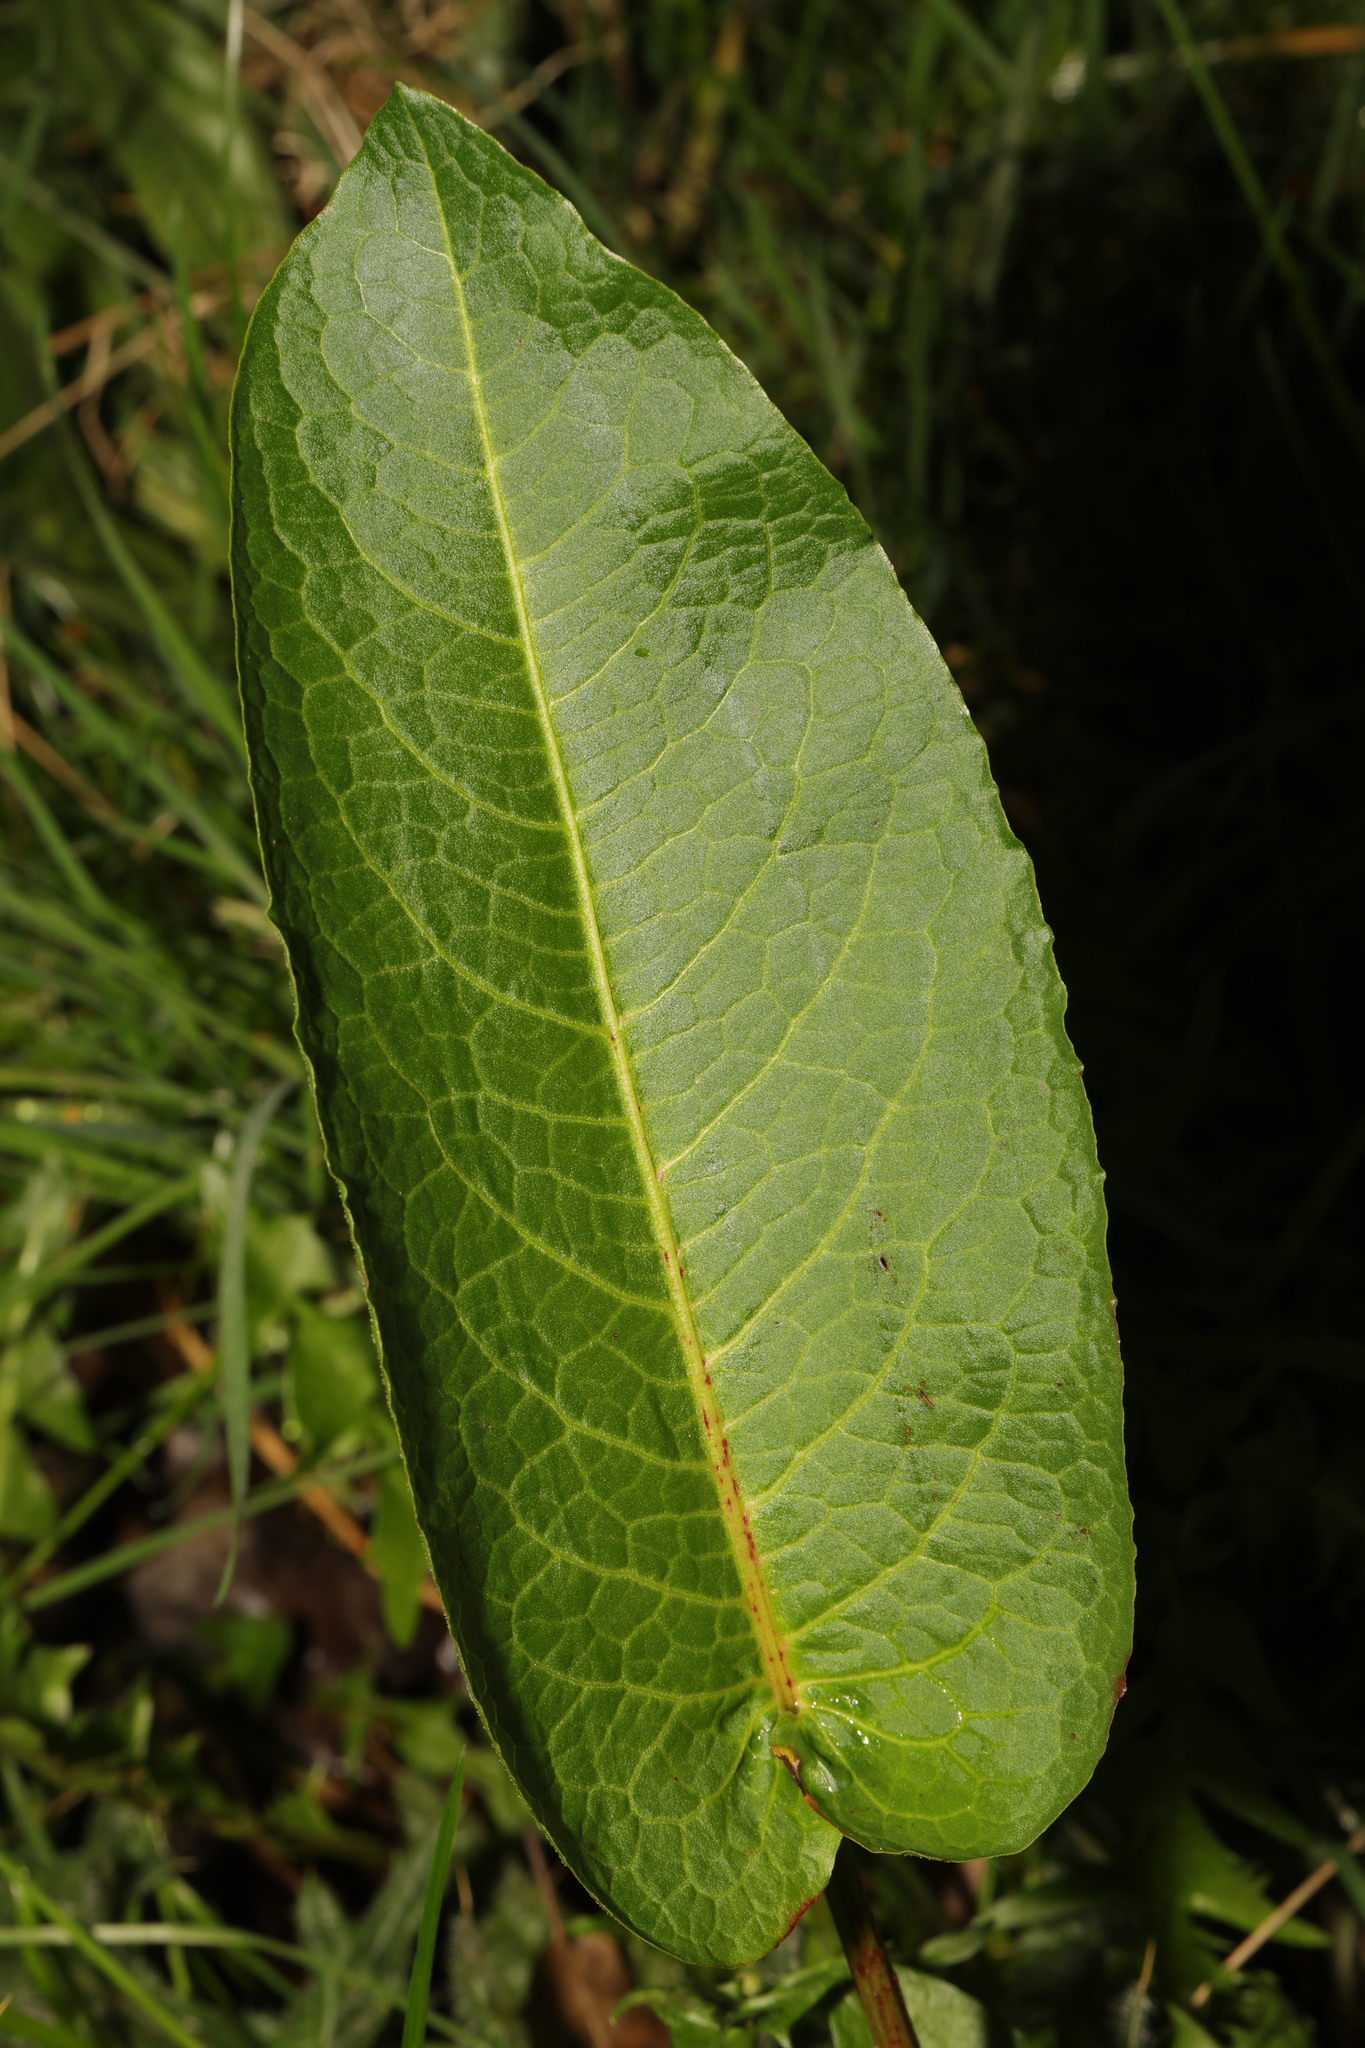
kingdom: Plantae
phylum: Tracheophyta
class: Magnoliopsida
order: Caryophyllales
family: Polygonaceae
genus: Rumex
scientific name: Rumex obtusifolius
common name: Bitter dock
